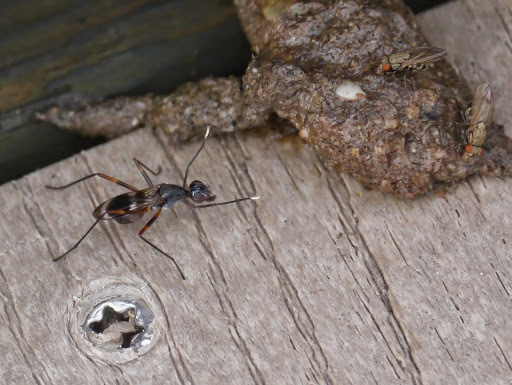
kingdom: Animalia
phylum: Arthropoda
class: Insecta
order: Diptera
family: Micropezidae
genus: Taeniaptera
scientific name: Taeniaptera trivittata
